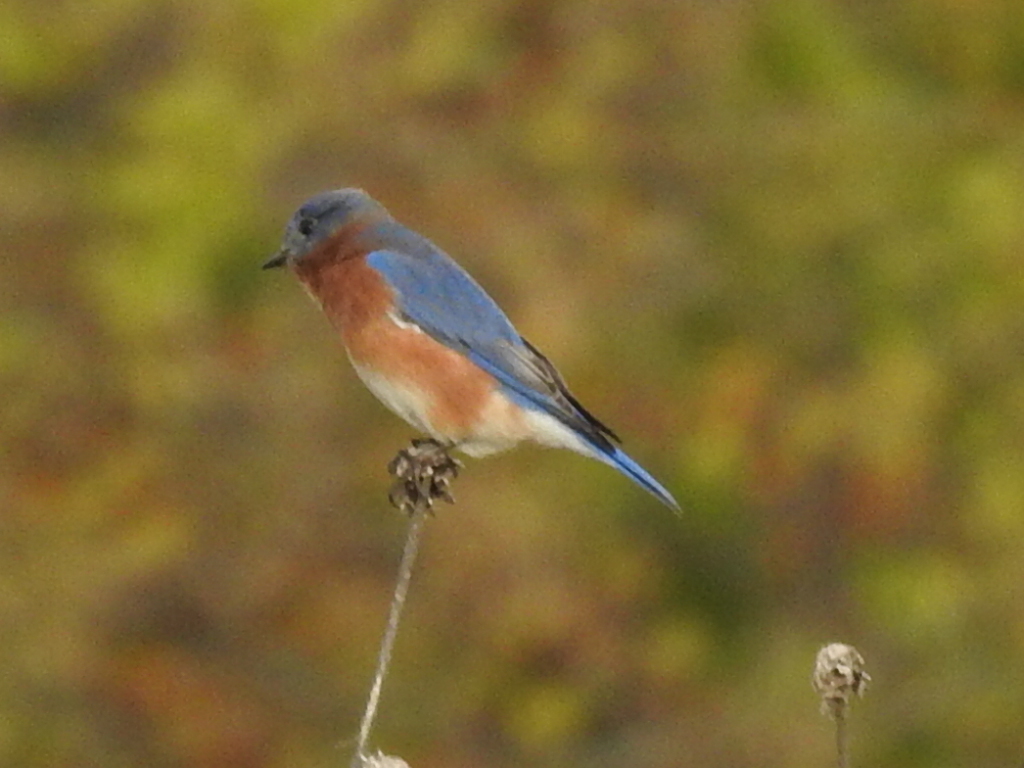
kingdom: Animalia
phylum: Chordata
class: Aves
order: Passeriformes
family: Turdidae
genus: Sialia
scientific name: Sialia sialis
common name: Eastern bluebird
